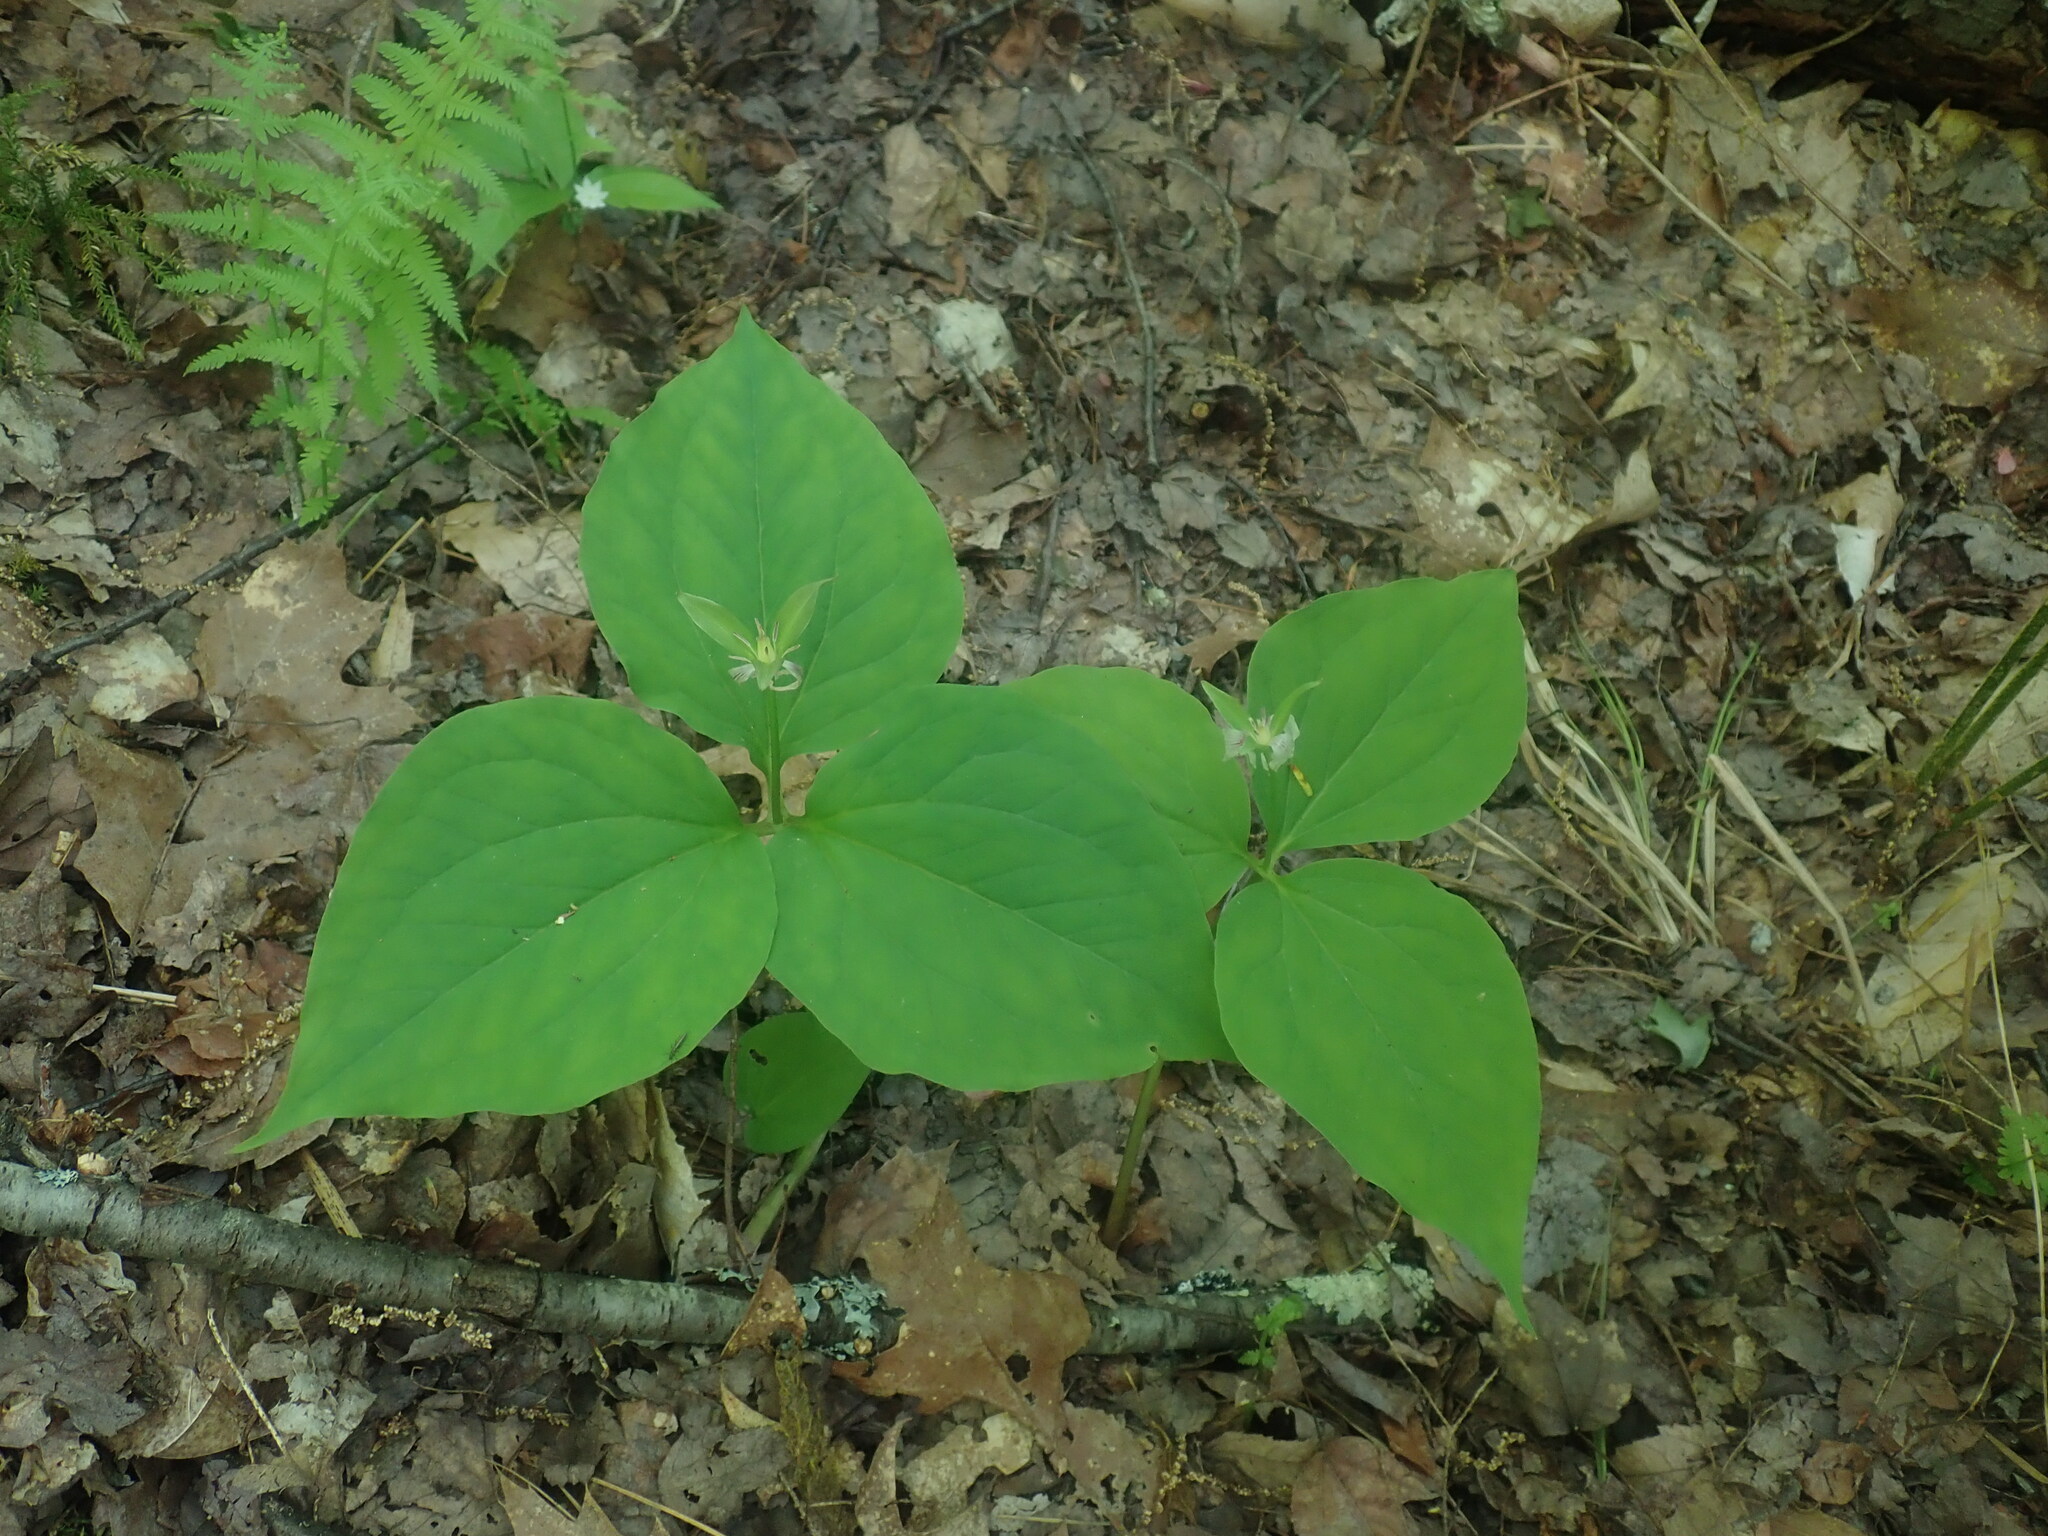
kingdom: Plantae
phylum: Tracheophyta
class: Liliopsida
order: Liliales
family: Melanthiaceae
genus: Trillium
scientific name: Trillium undulatum
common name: Paint trillium
